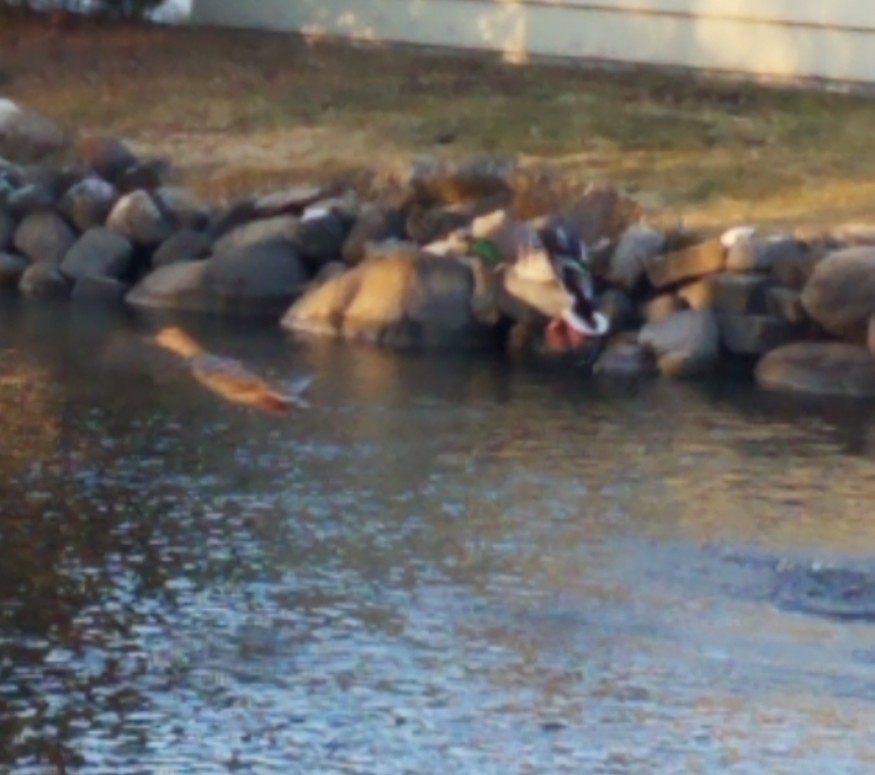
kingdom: Animalia
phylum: Chordata
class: Aves
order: Anseriformes
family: Anatidae
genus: Anas
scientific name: Anas platyrhynchos
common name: Mallard
